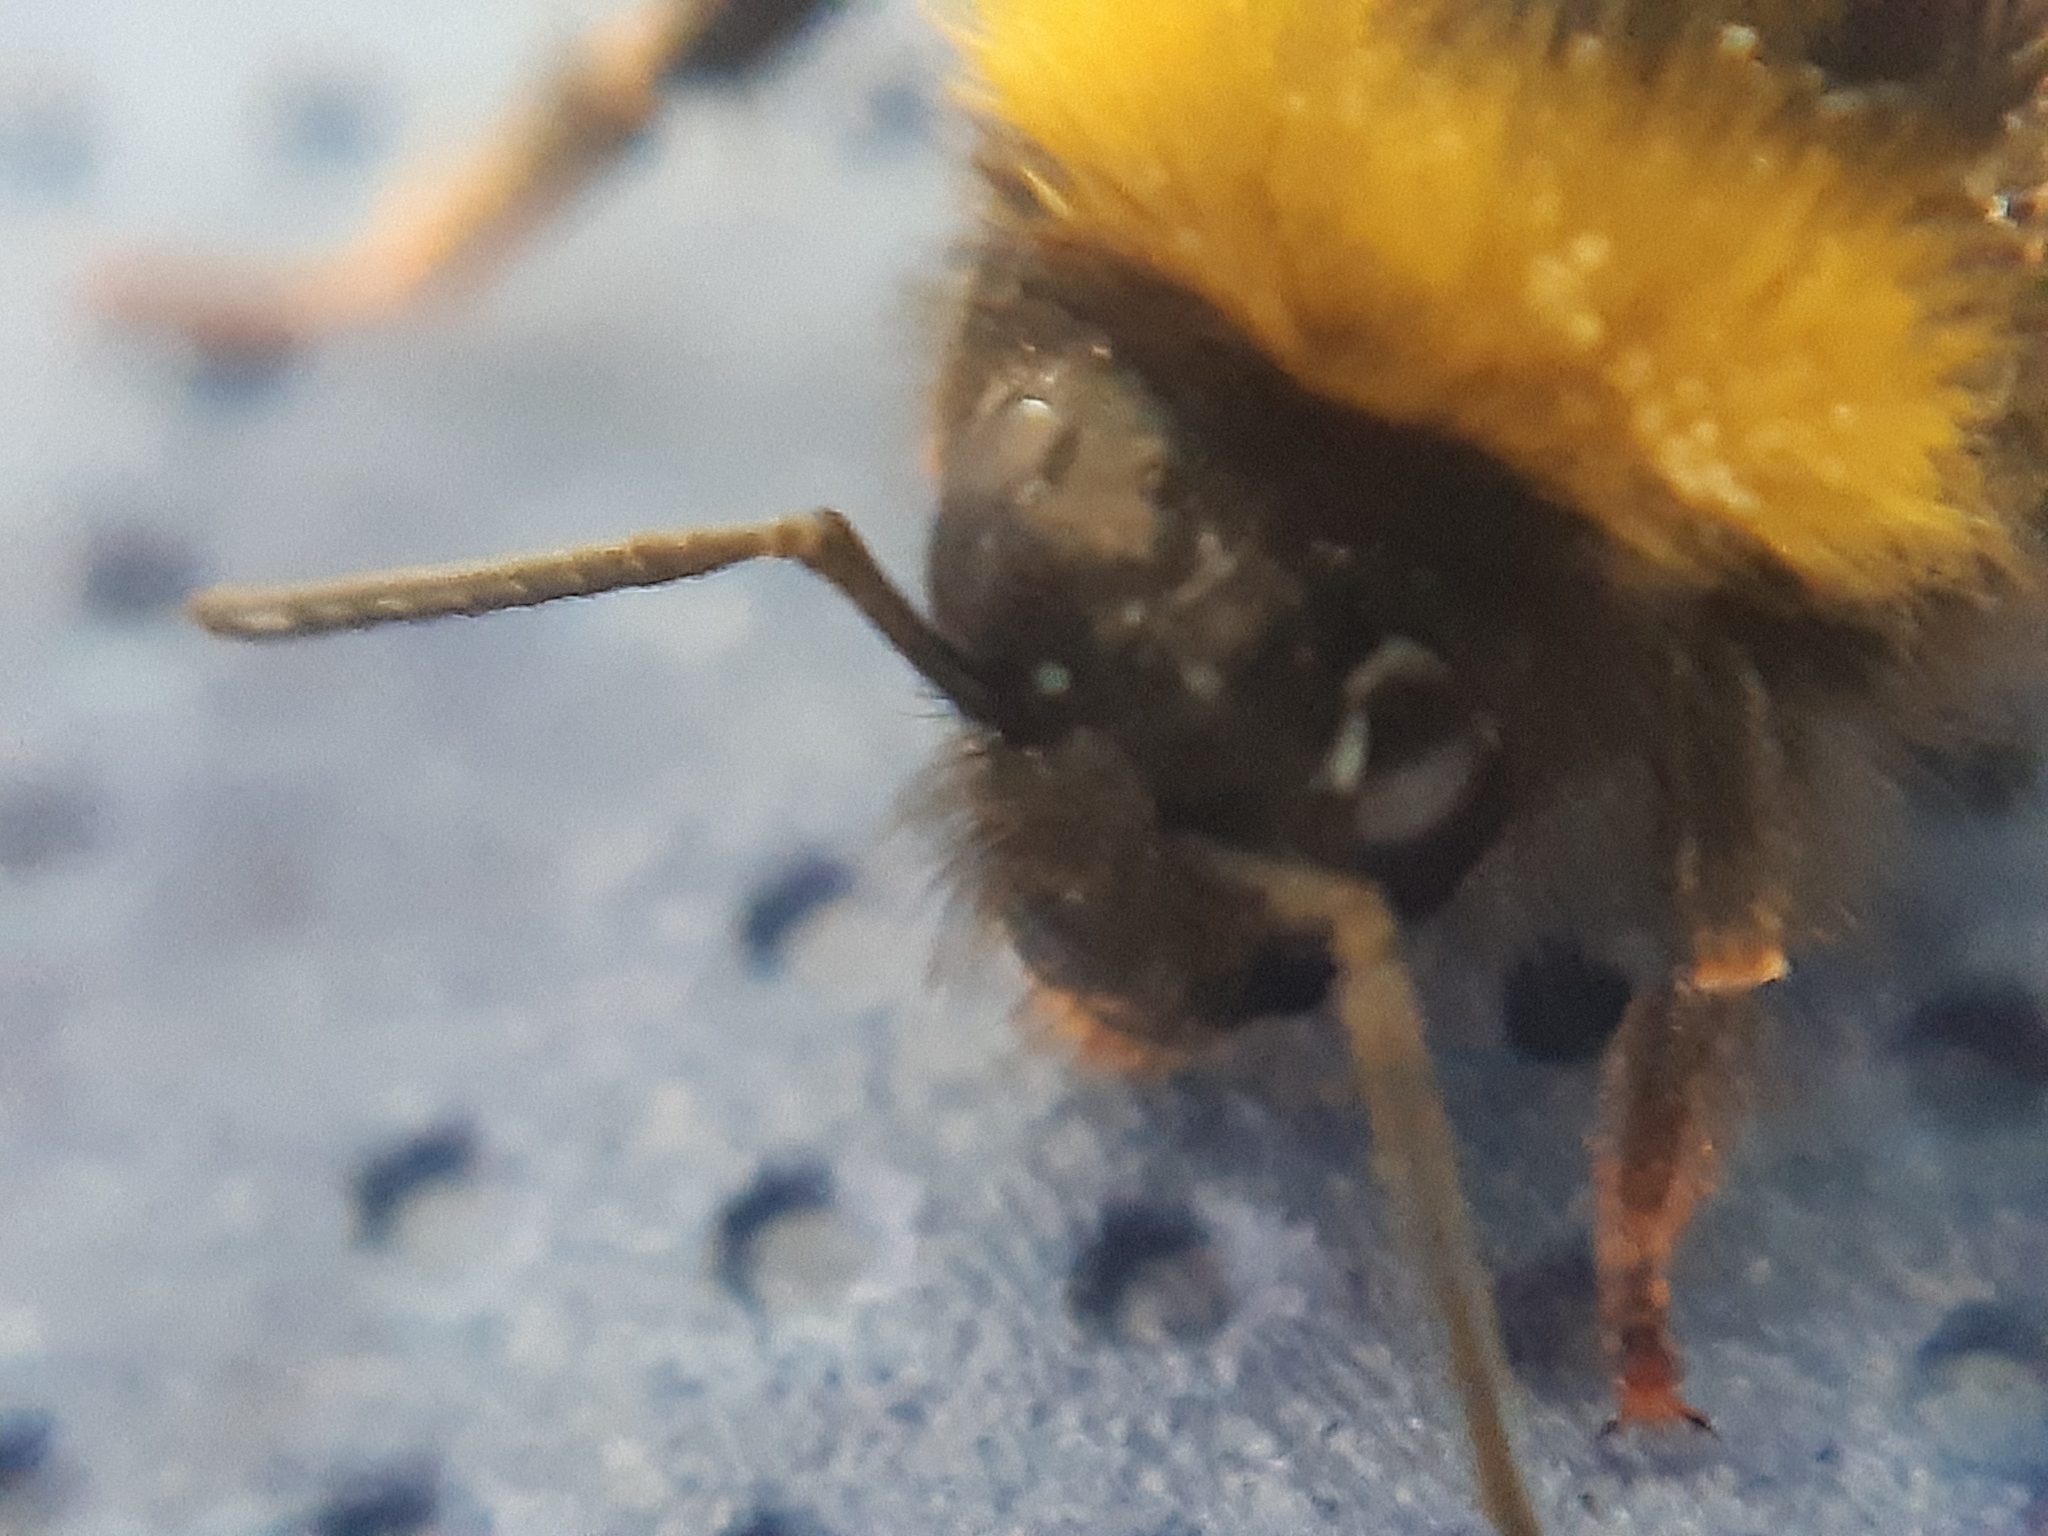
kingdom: Animalia
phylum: Arthropoda
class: Insecta
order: Hymenoptera
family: Apidae
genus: Bombus
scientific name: Bombus pratorum
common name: Early humble-bee
